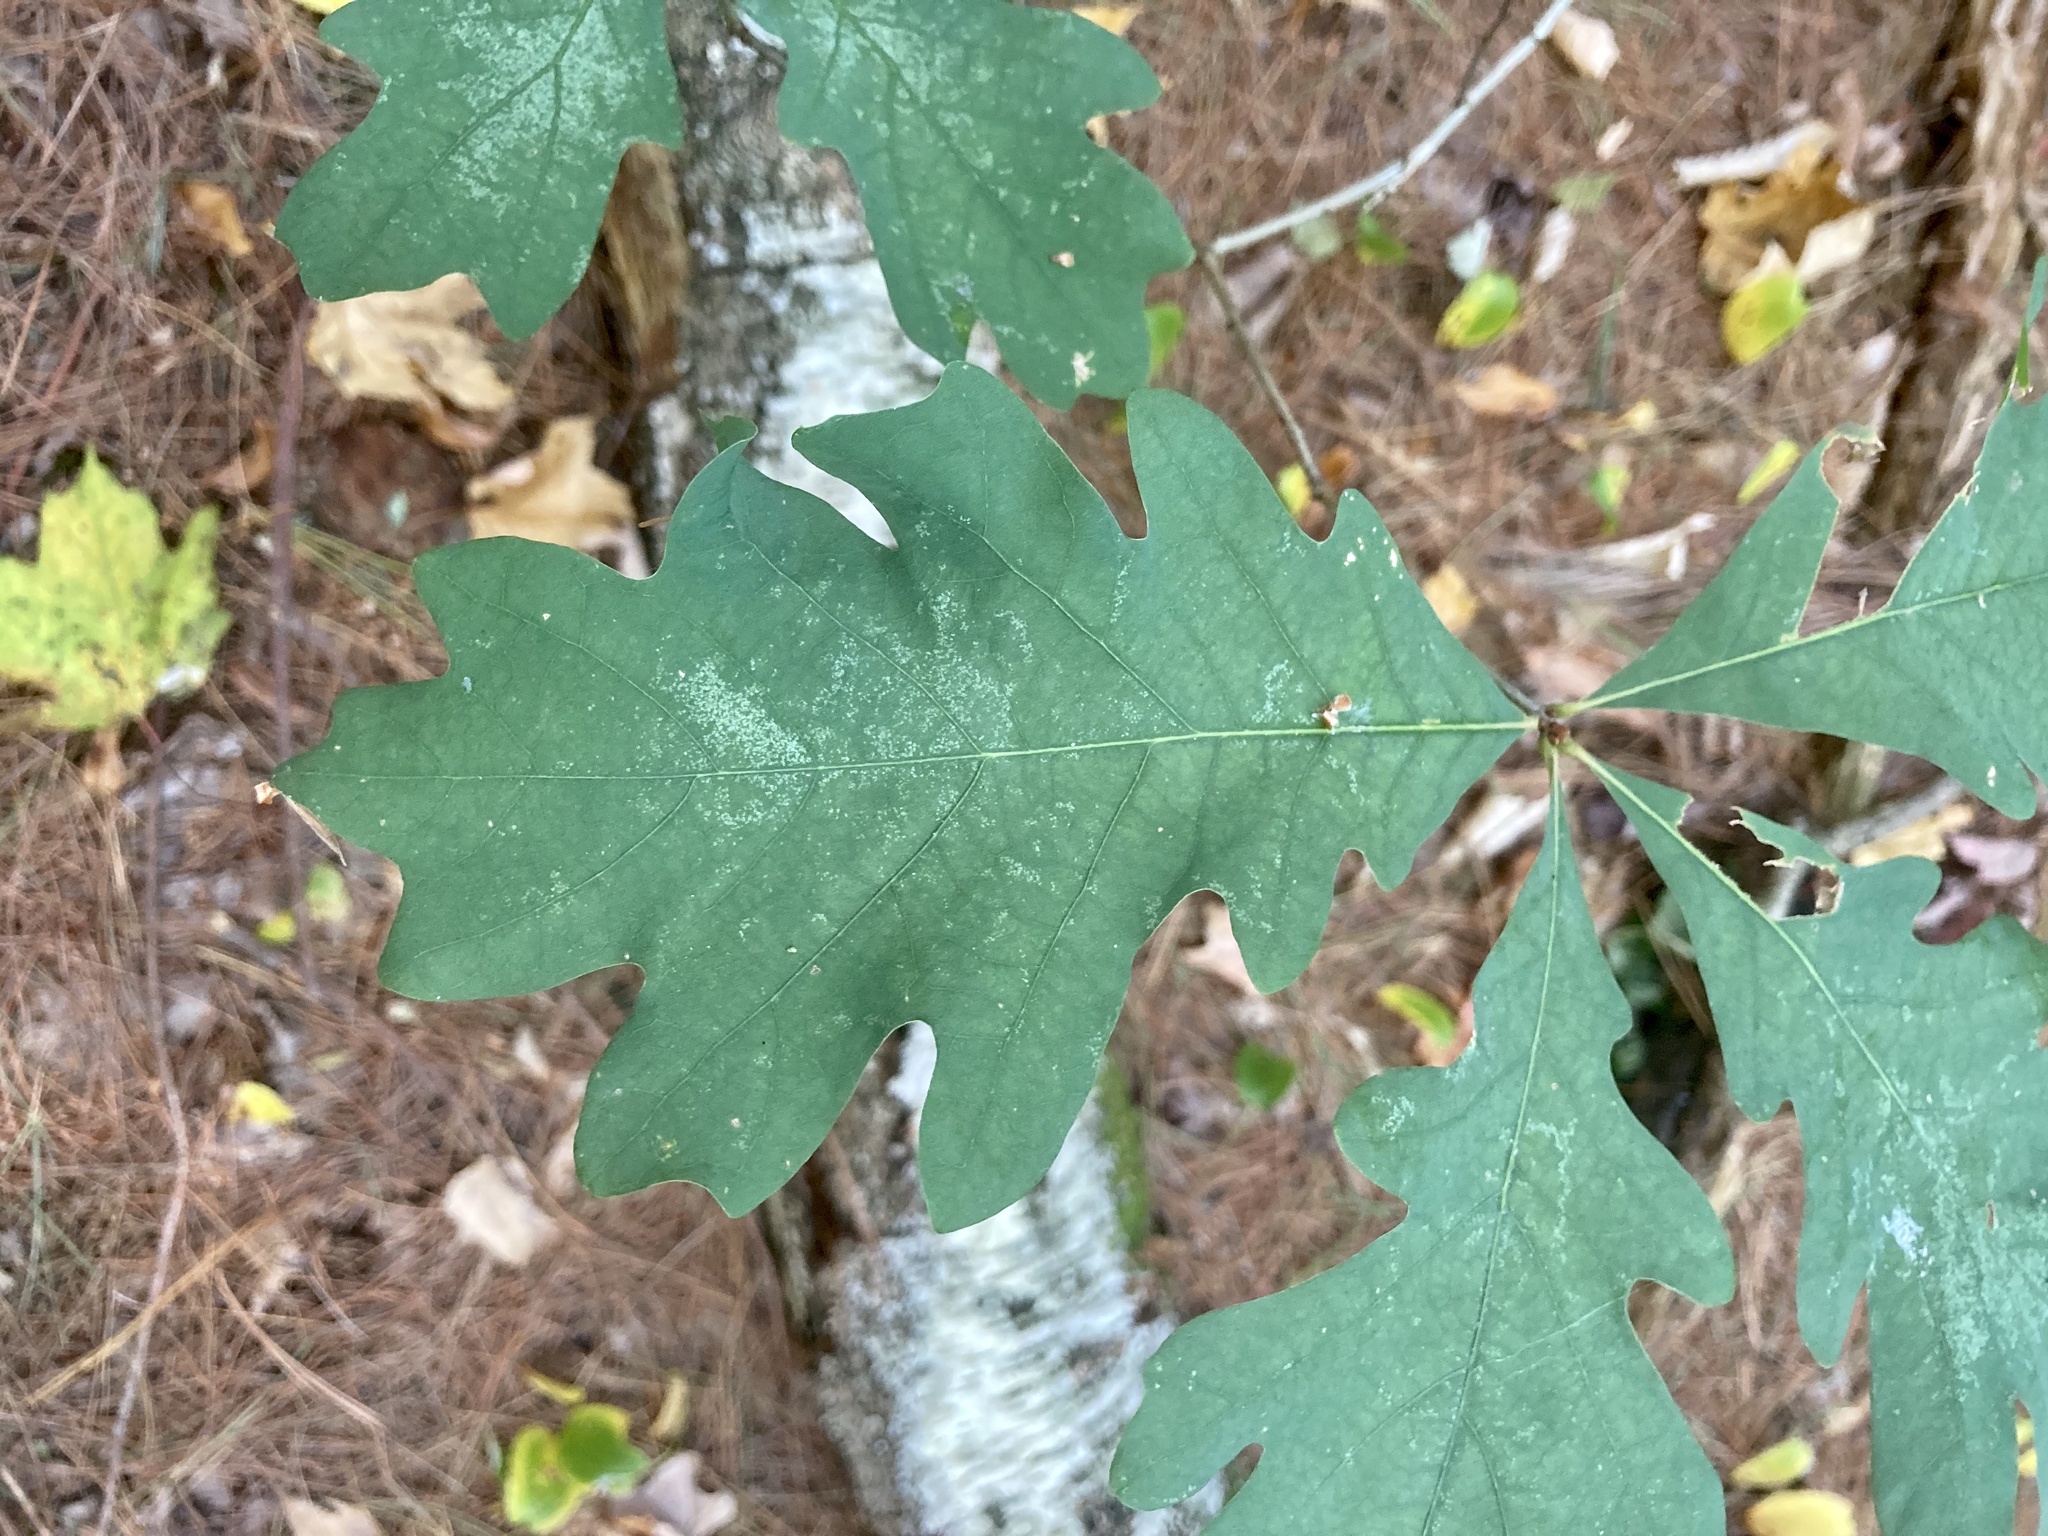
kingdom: Plantae
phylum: Tracheophyta
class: Magnoliopsida
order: Fagales
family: Fagaceae
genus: Quercus
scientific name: Quercus alba
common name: White oak
